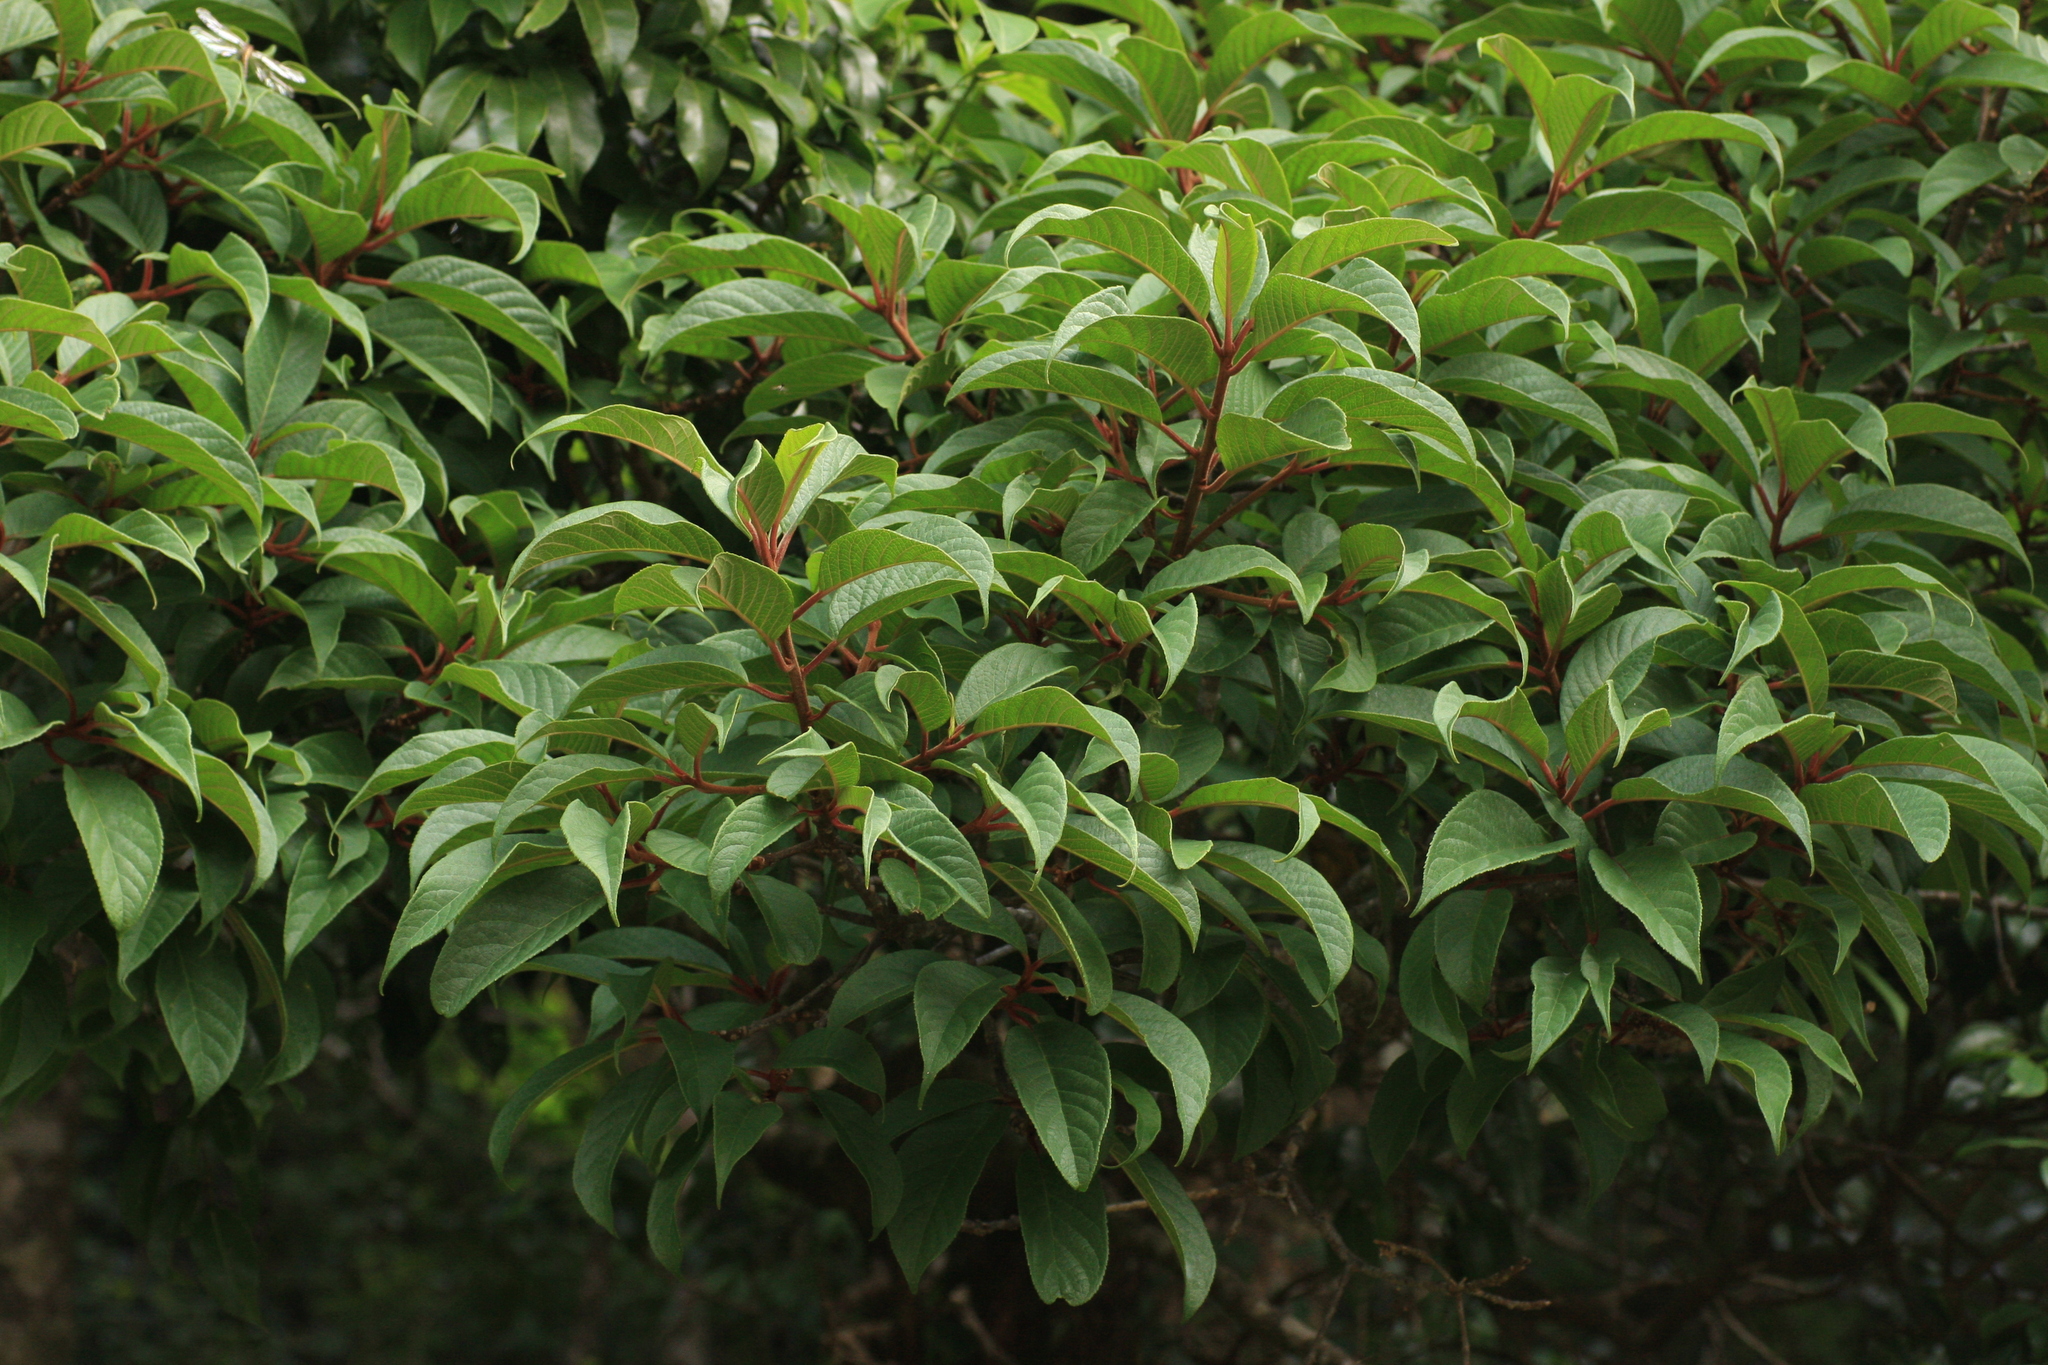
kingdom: Plantae
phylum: Tracheophyta
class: Magnoliopsida
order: Malpighiales
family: Salicaceae
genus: Casearia
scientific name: Casearia rubescens
